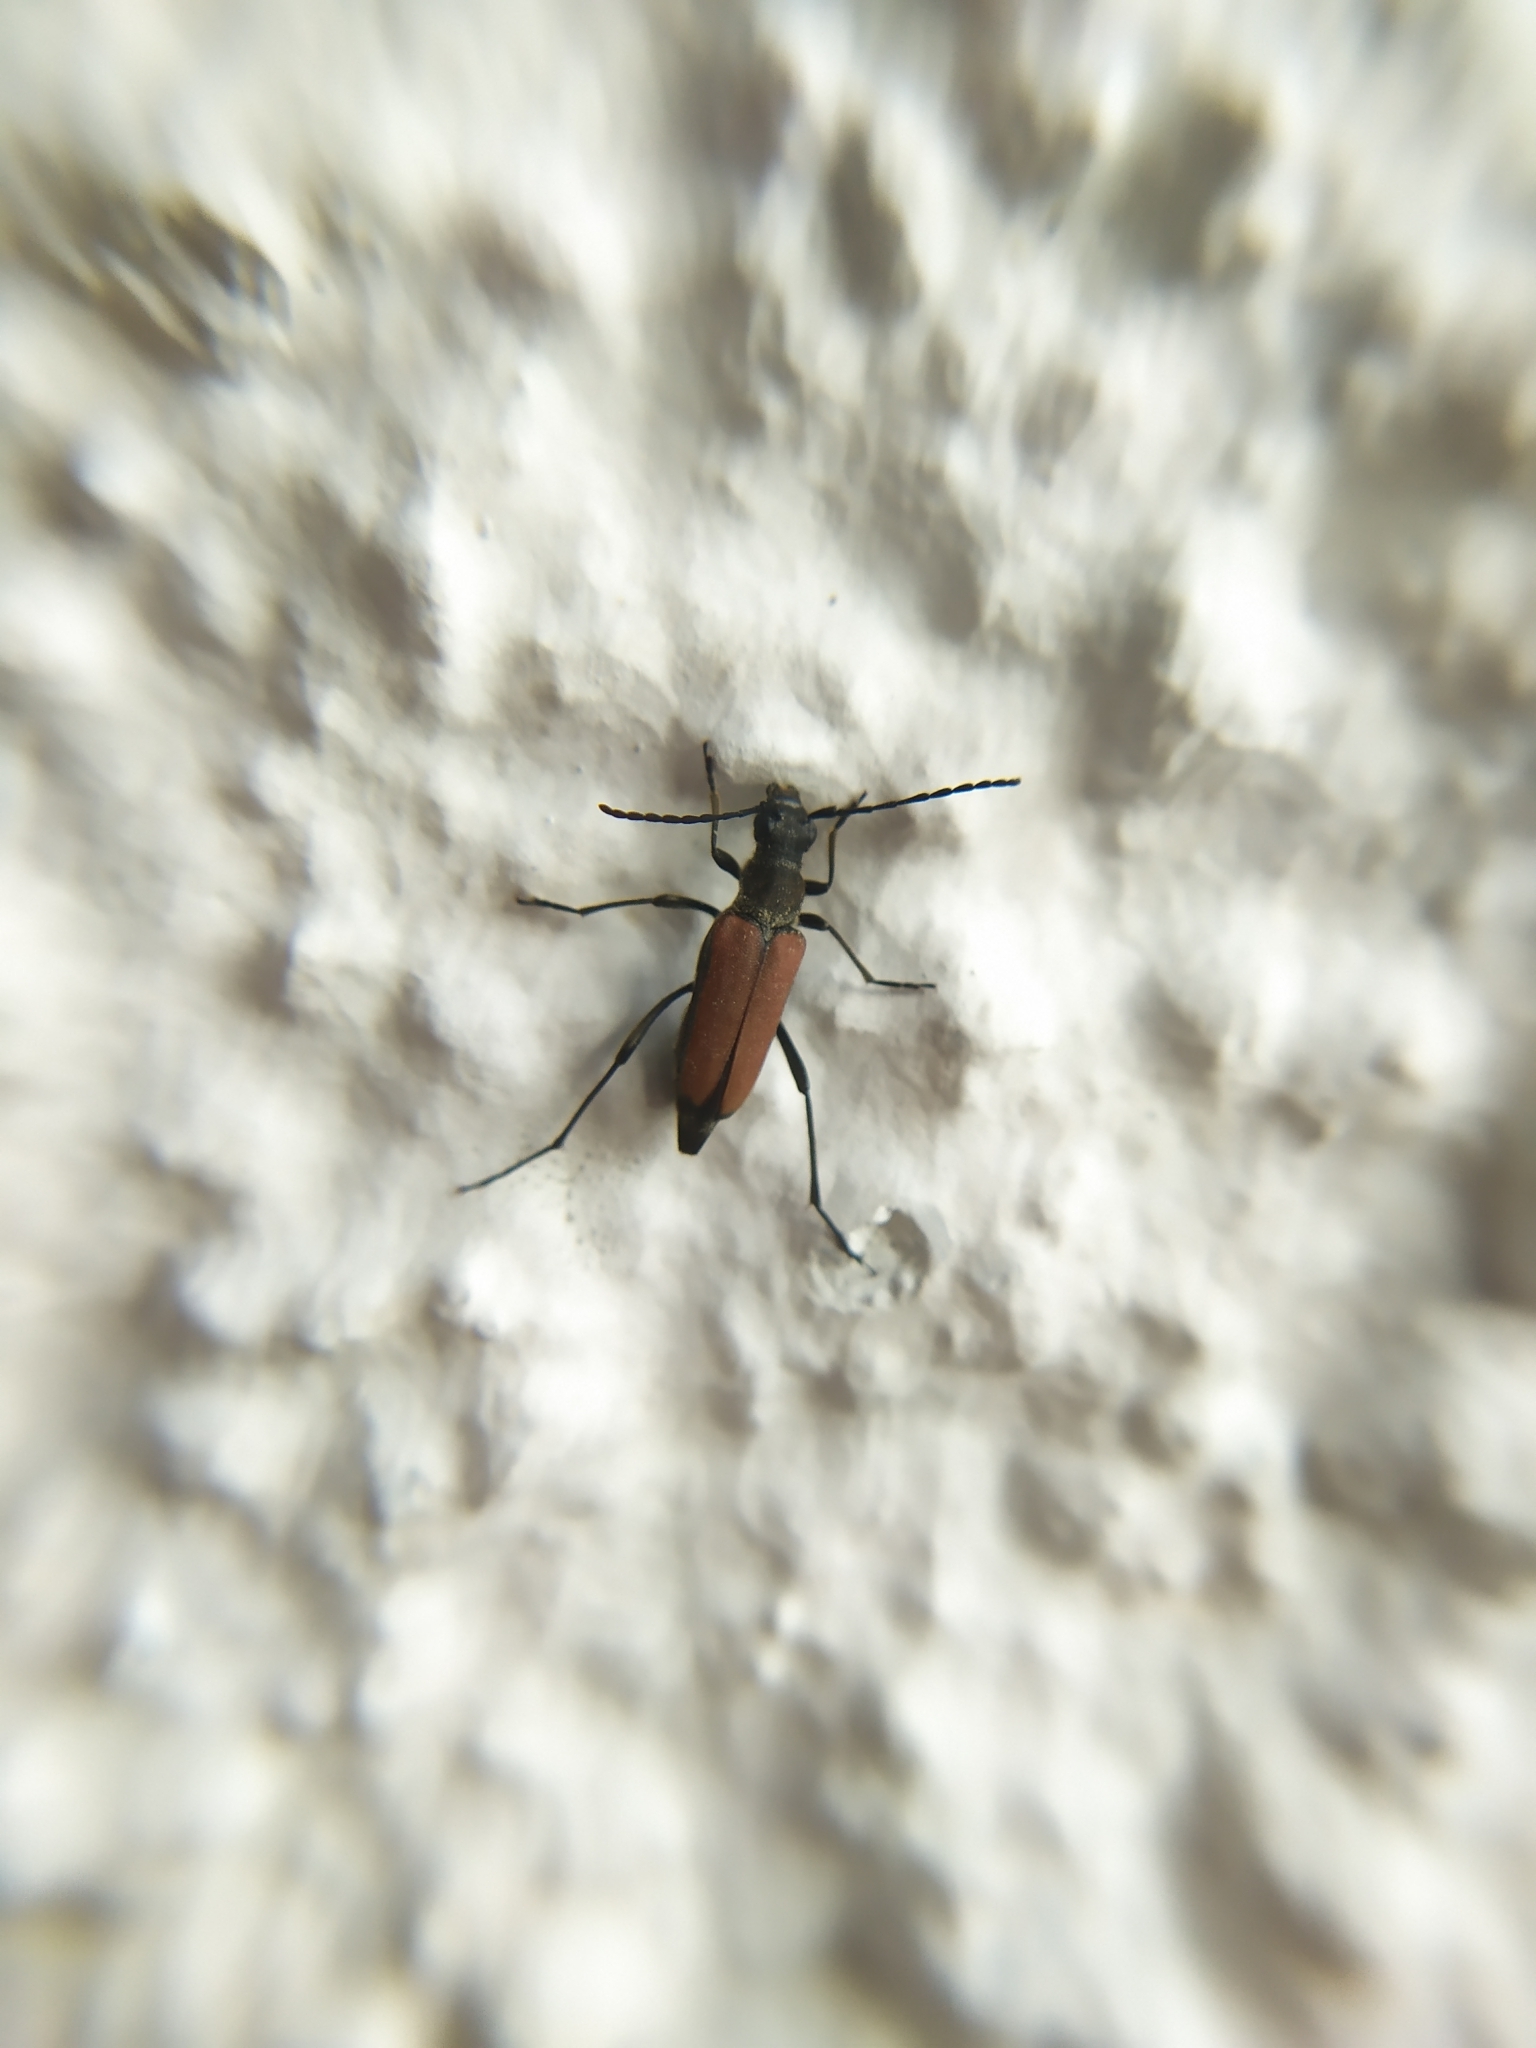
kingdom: Animalia
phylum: Arthropoda
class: Insecta
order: Coleoptera
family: Cerambycidae
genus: Anastrangalia
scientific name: Anastrangalia sanguinolenta
